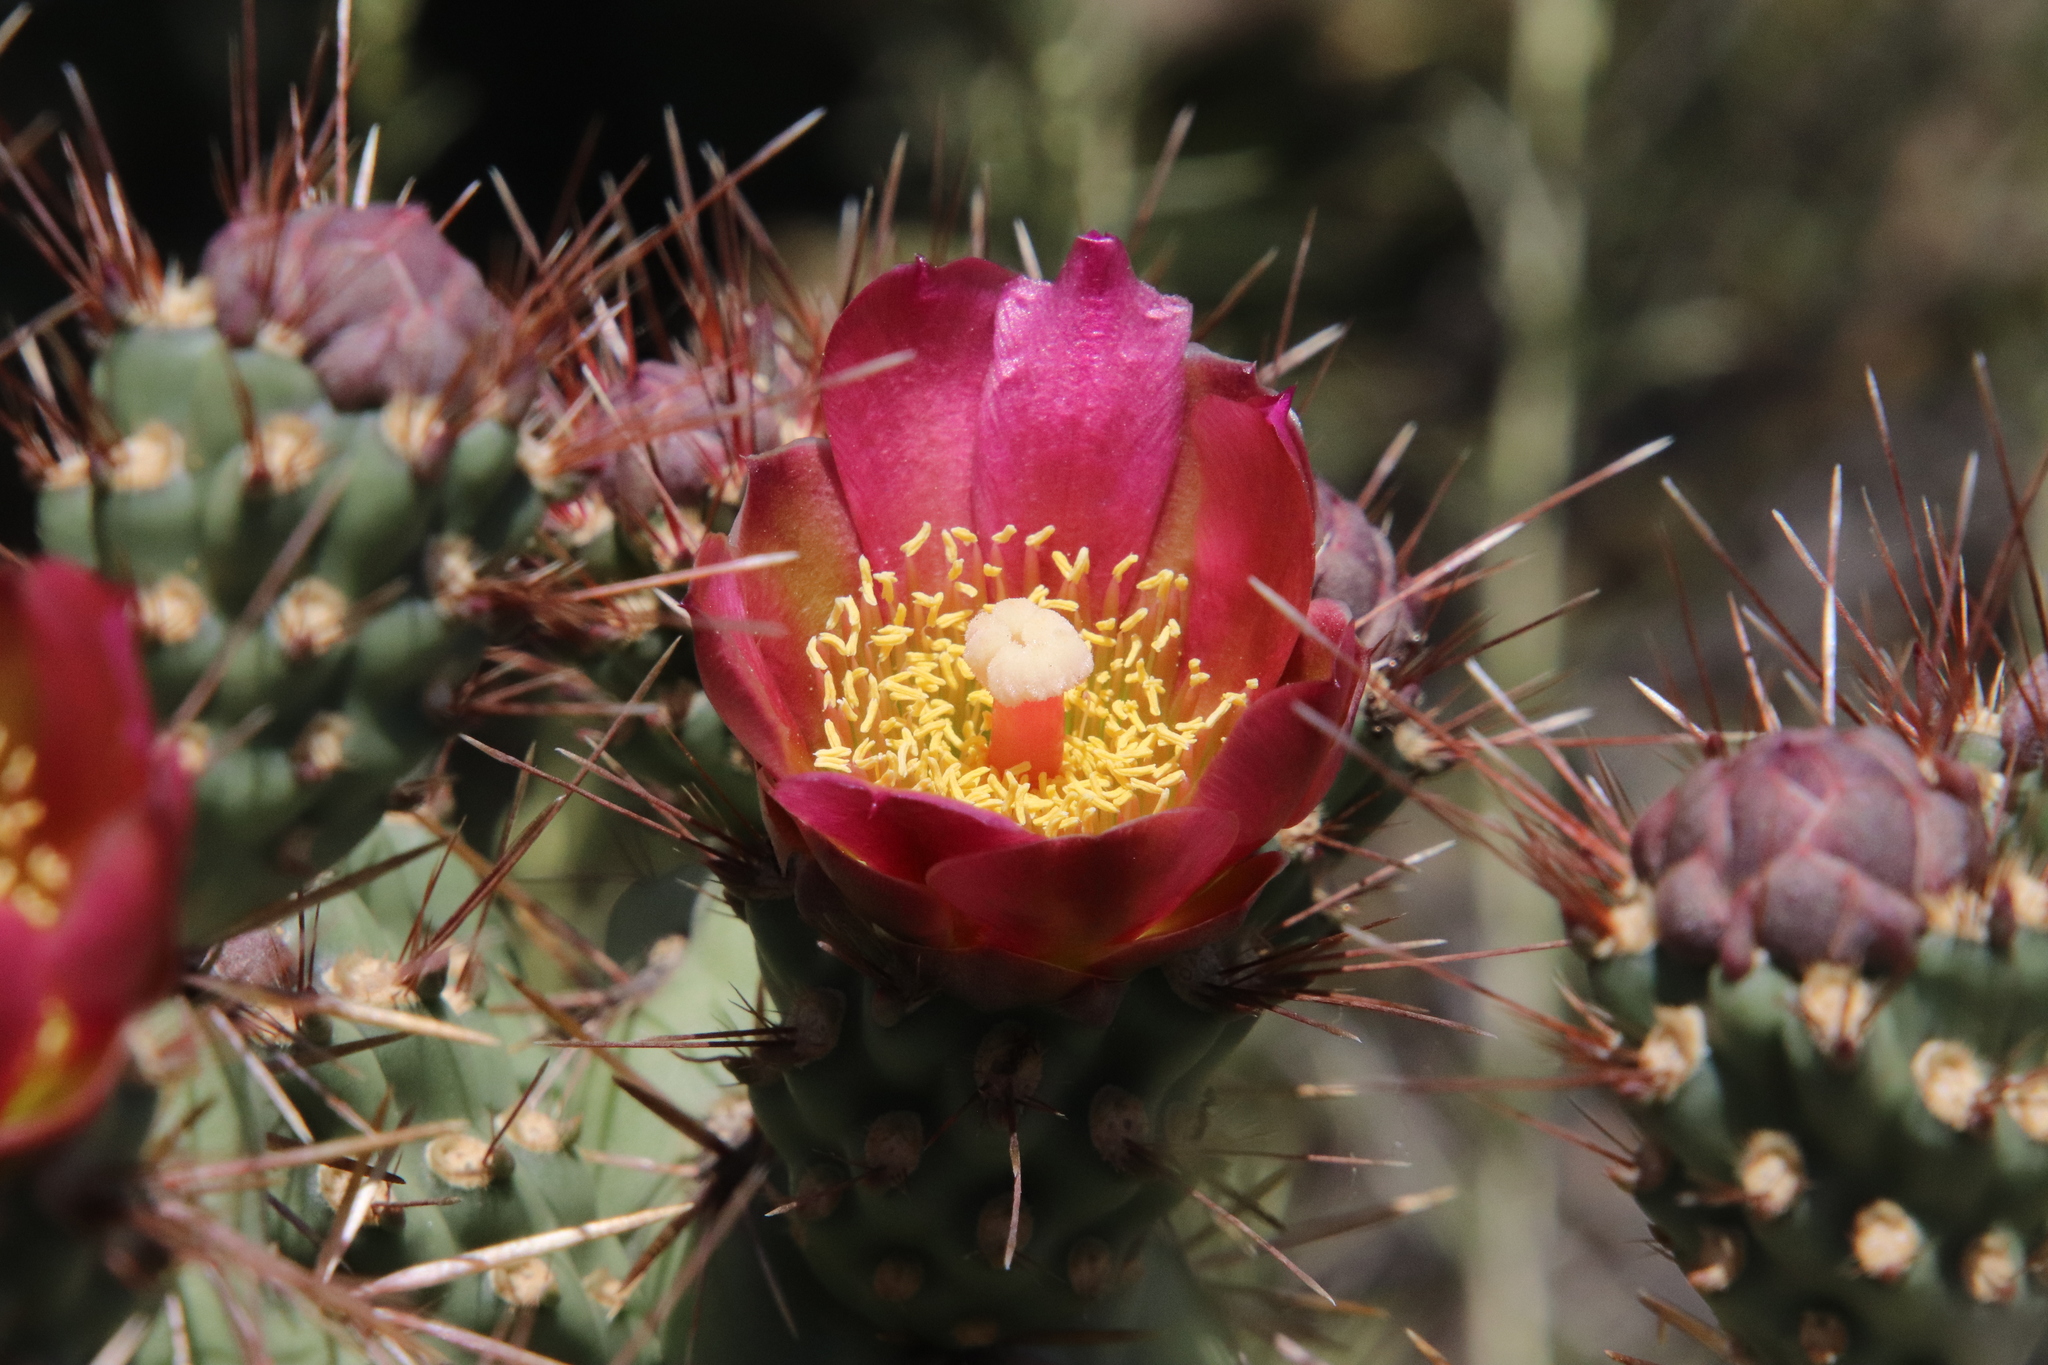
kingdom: Plantae
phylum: Tracheophyta
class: Magnoliopsida
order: Caryophyllales
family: Cactaceae
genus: Cylindropuntia
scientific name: Cylindropuntia prolifera
